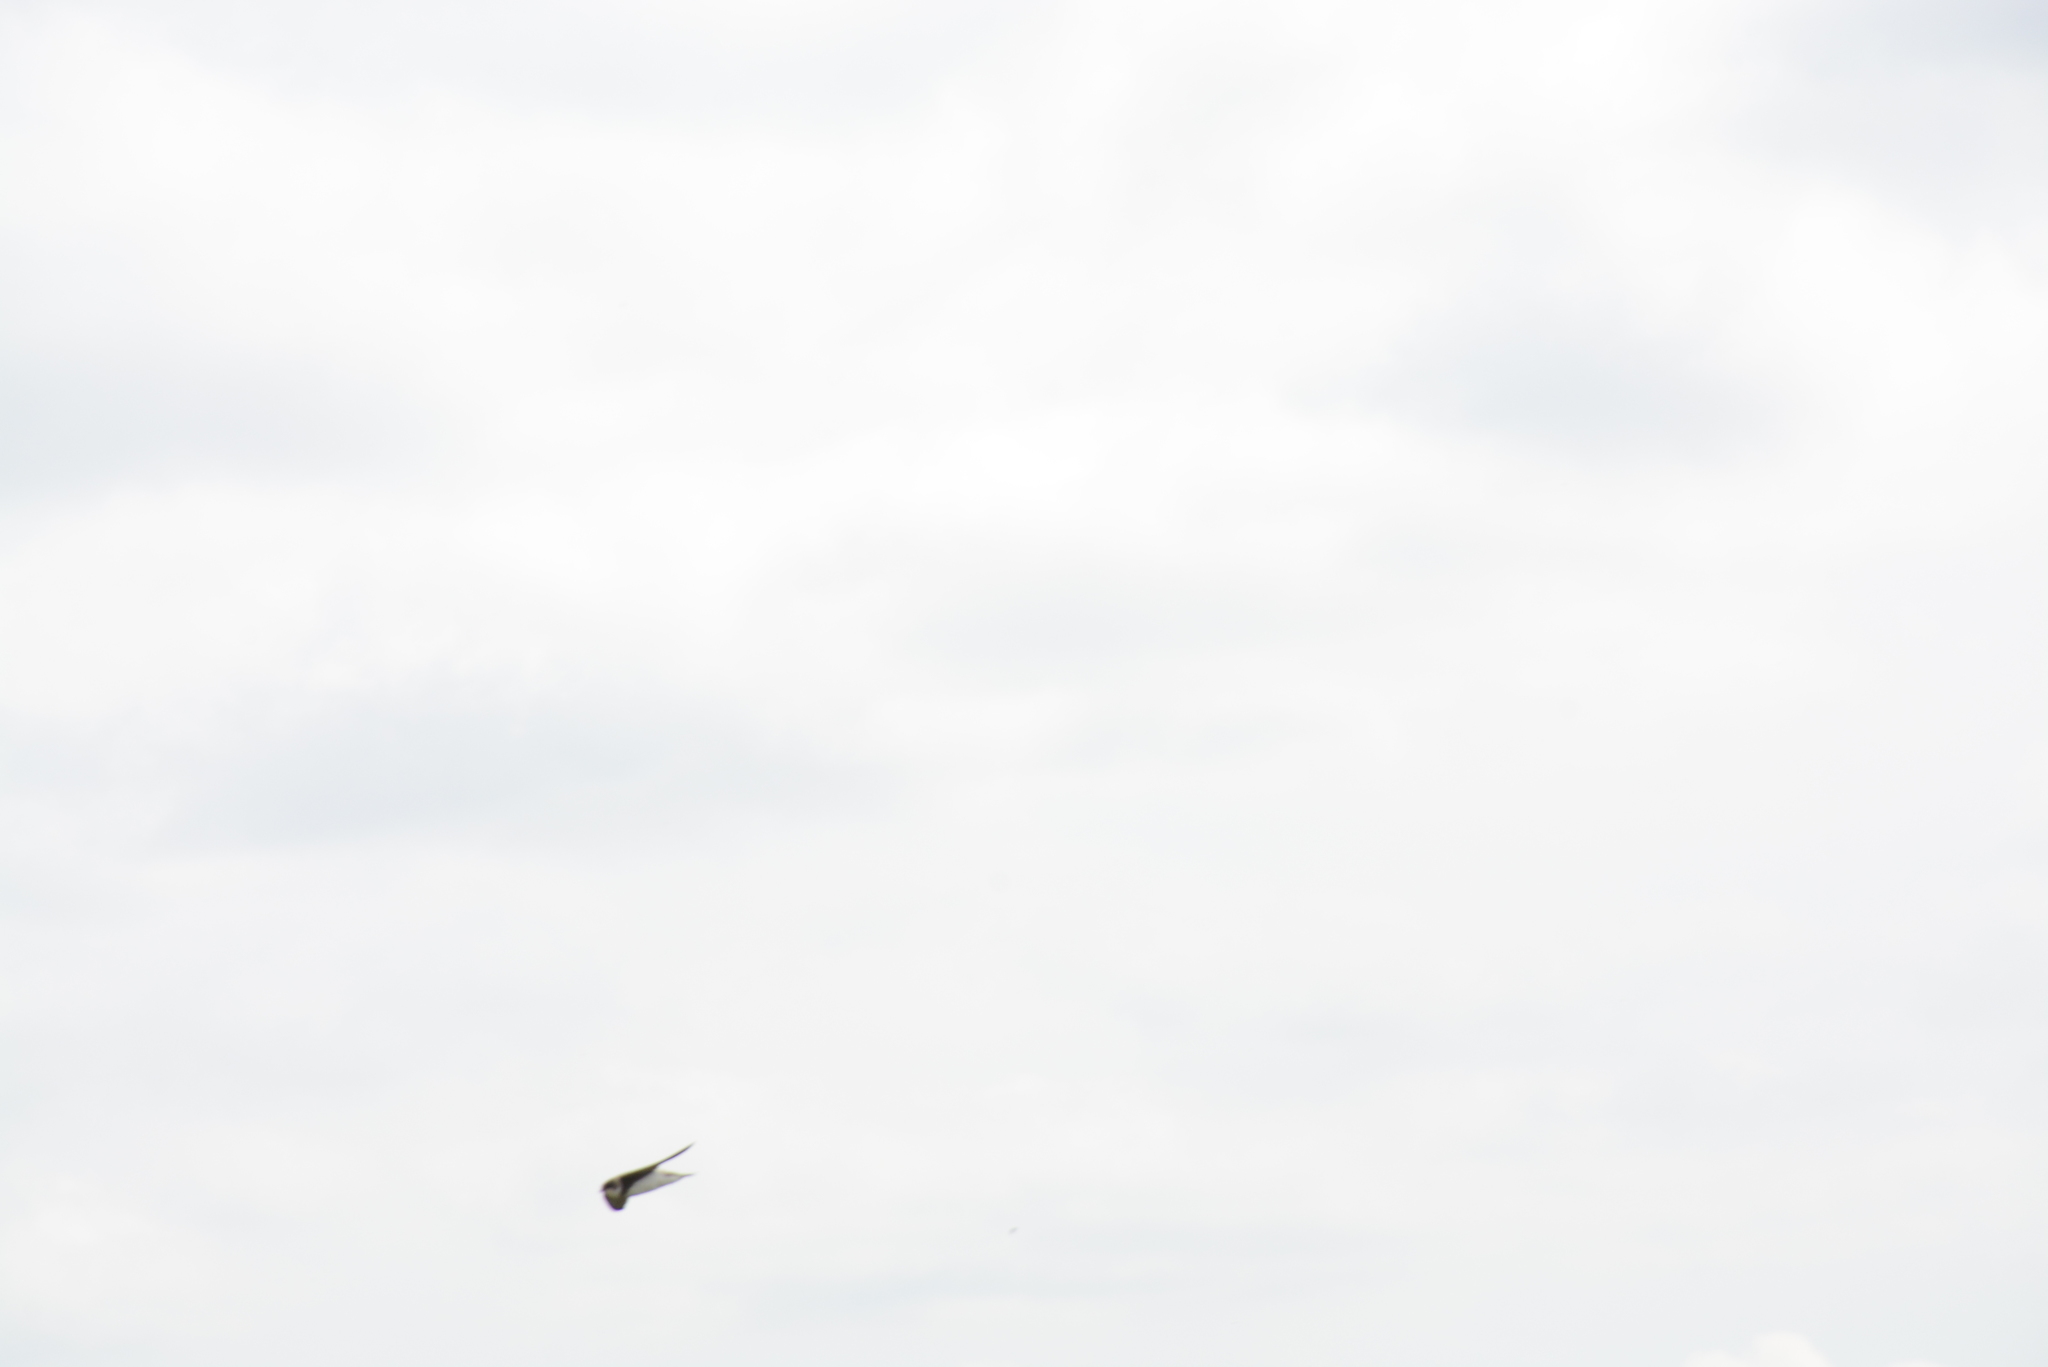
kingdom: Animalia
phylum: Chordata
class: Aves
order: Passeriformes
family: Hirundinidae
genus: Riparia
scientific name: Riparia riparia
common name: Sand martin
